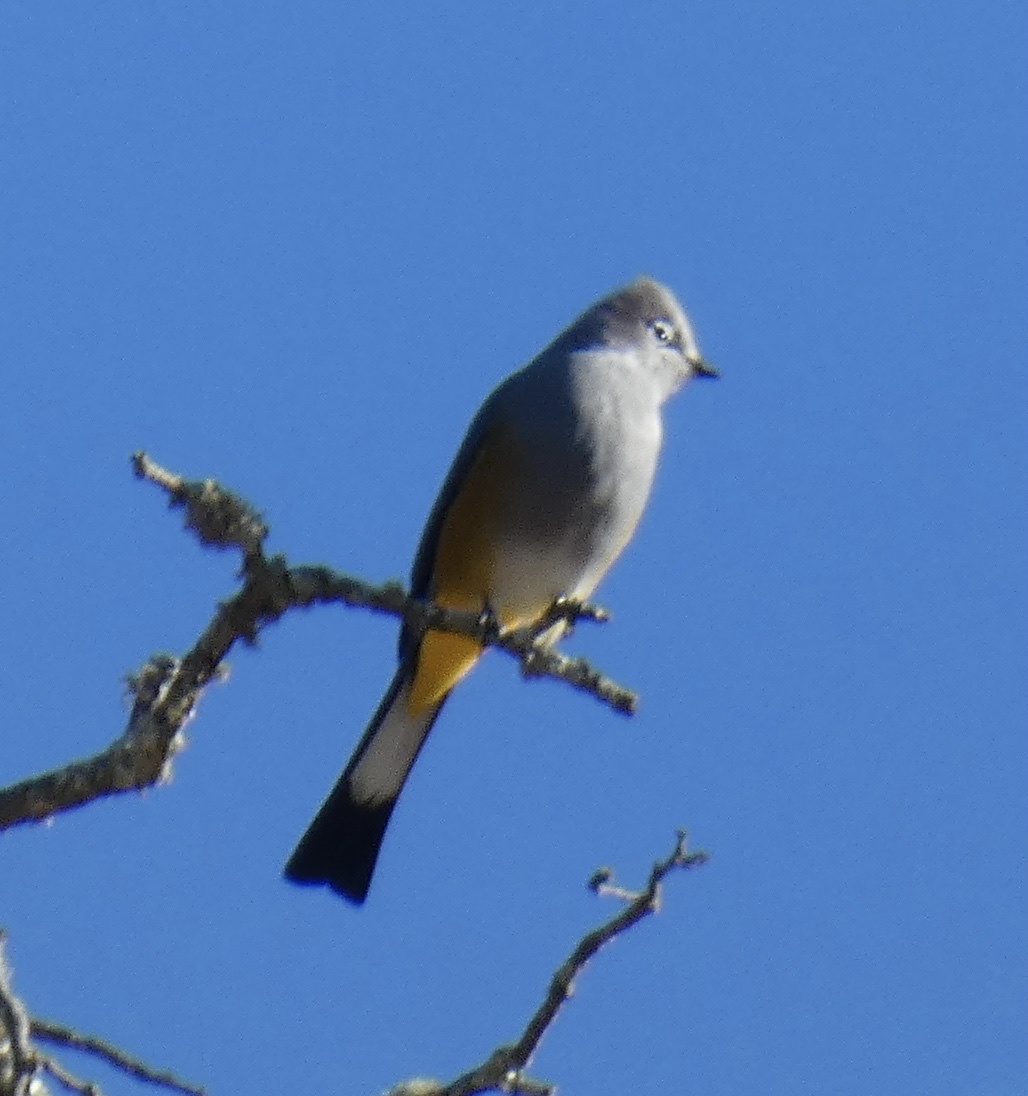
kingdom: Animalia
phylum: Chordata
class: Aves
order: Passeriformes
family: Ptilogonatidae
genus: Ptilogonys
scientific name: Ptilogonys cinereus
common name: Gray silky-flycatcher
